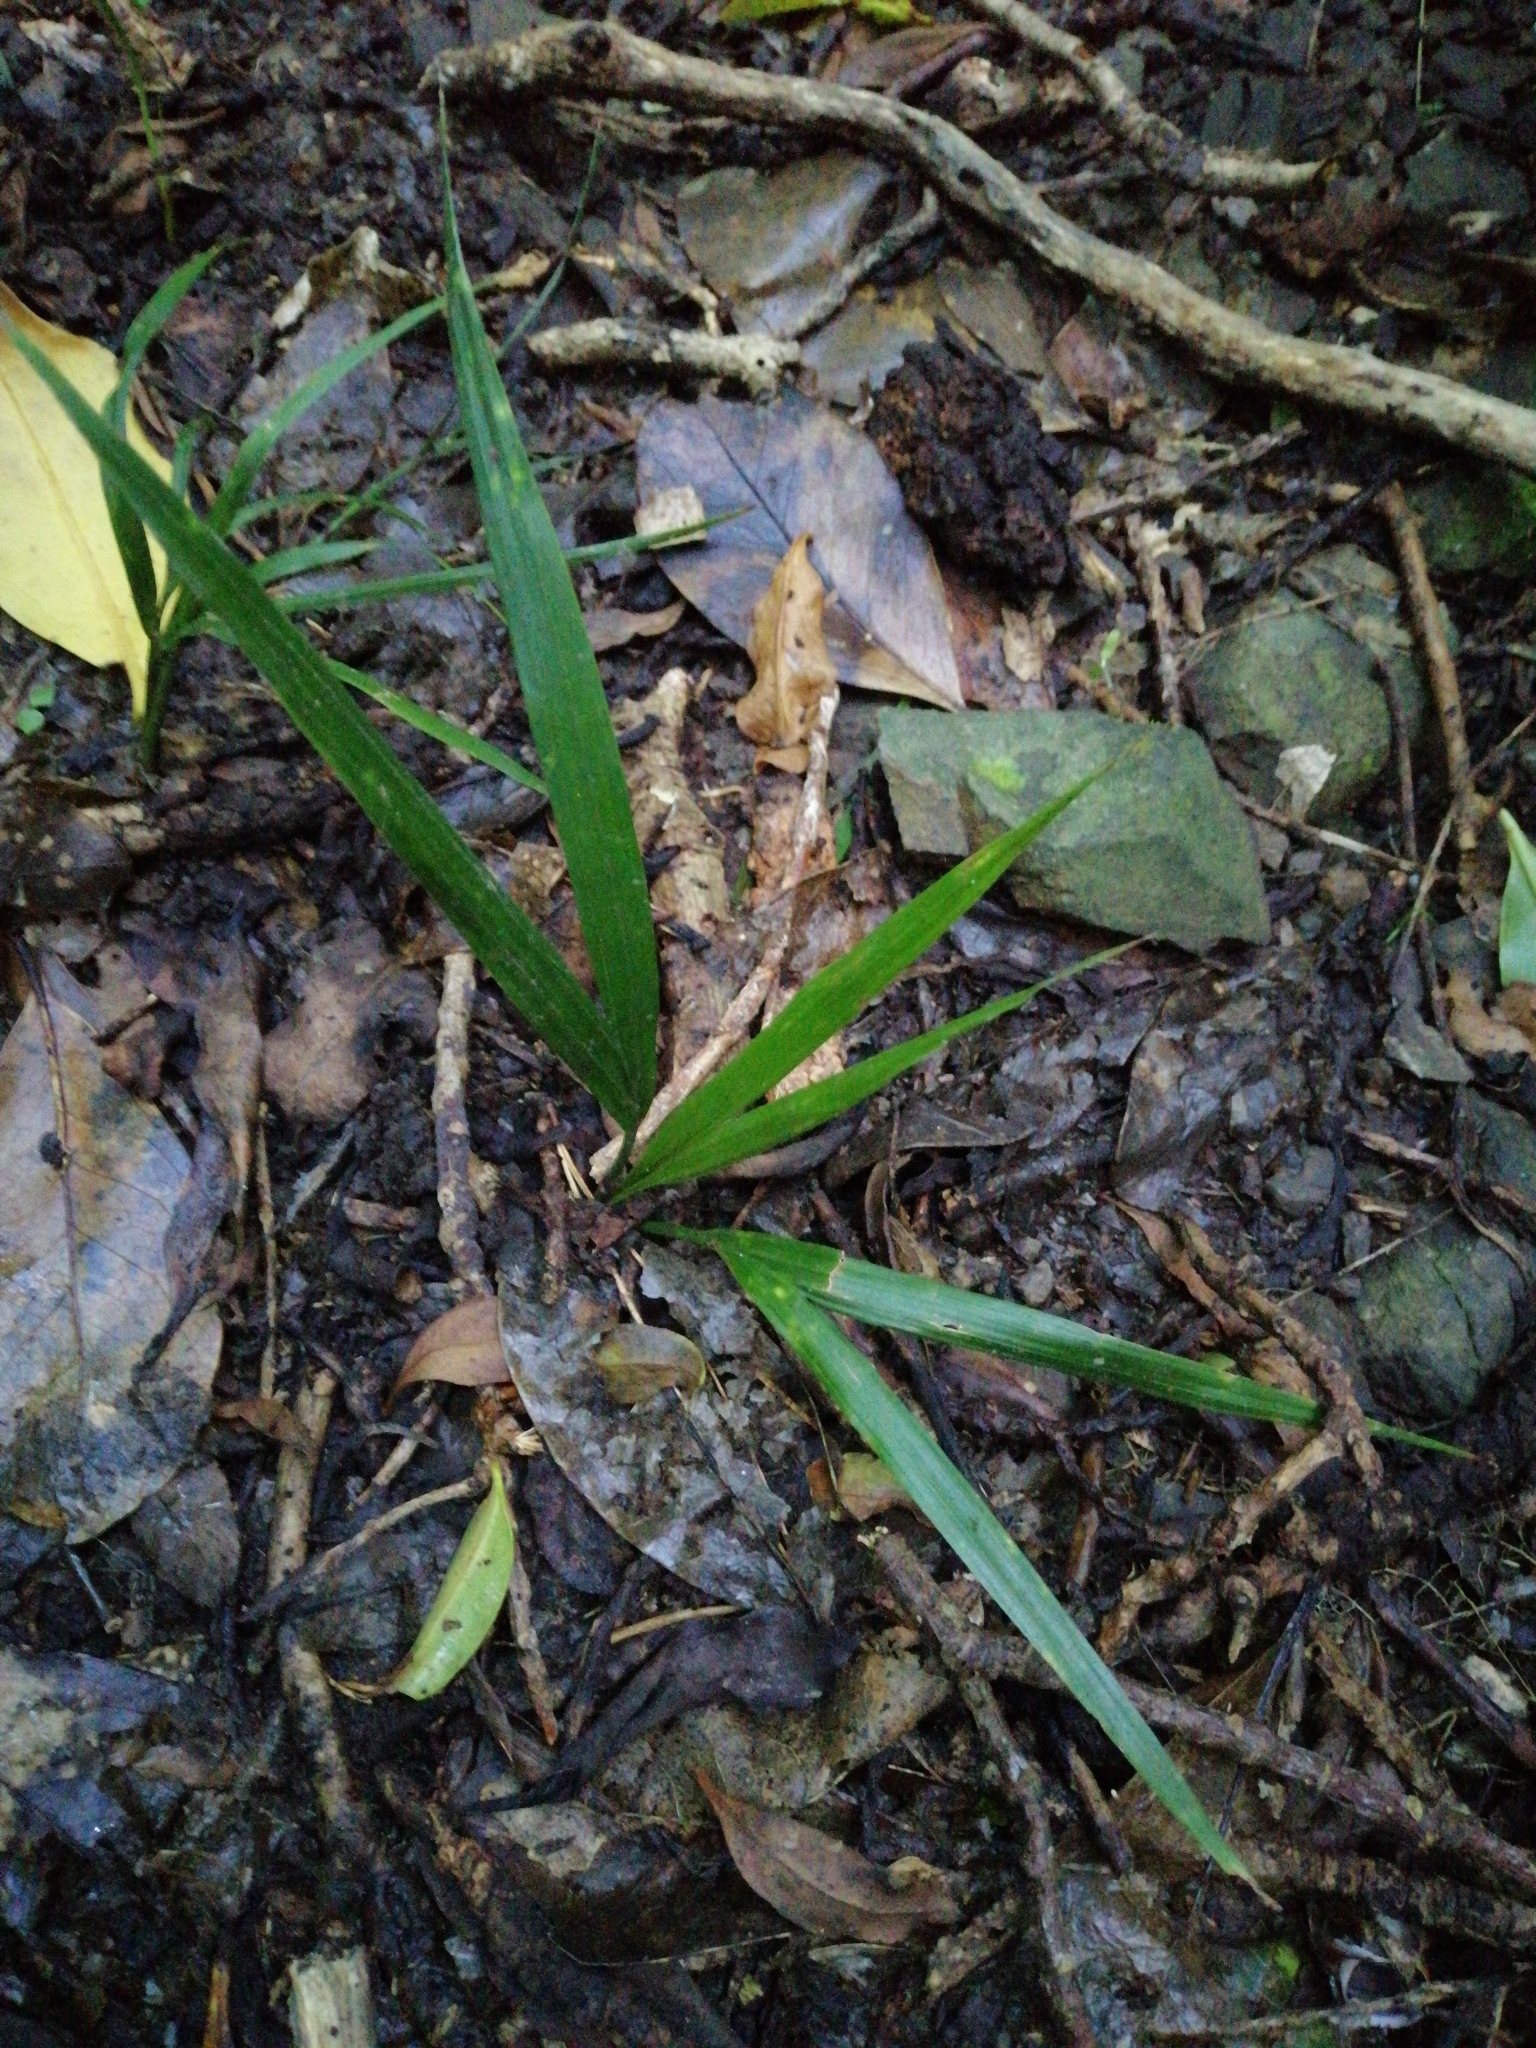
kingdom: Plantae
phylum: Tracheophyta
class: Liliopsida
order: Arecales
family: Arecaceae
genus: Rhopalostylis
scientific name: Rhopalostylis sapida
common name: Feather-duster palm
